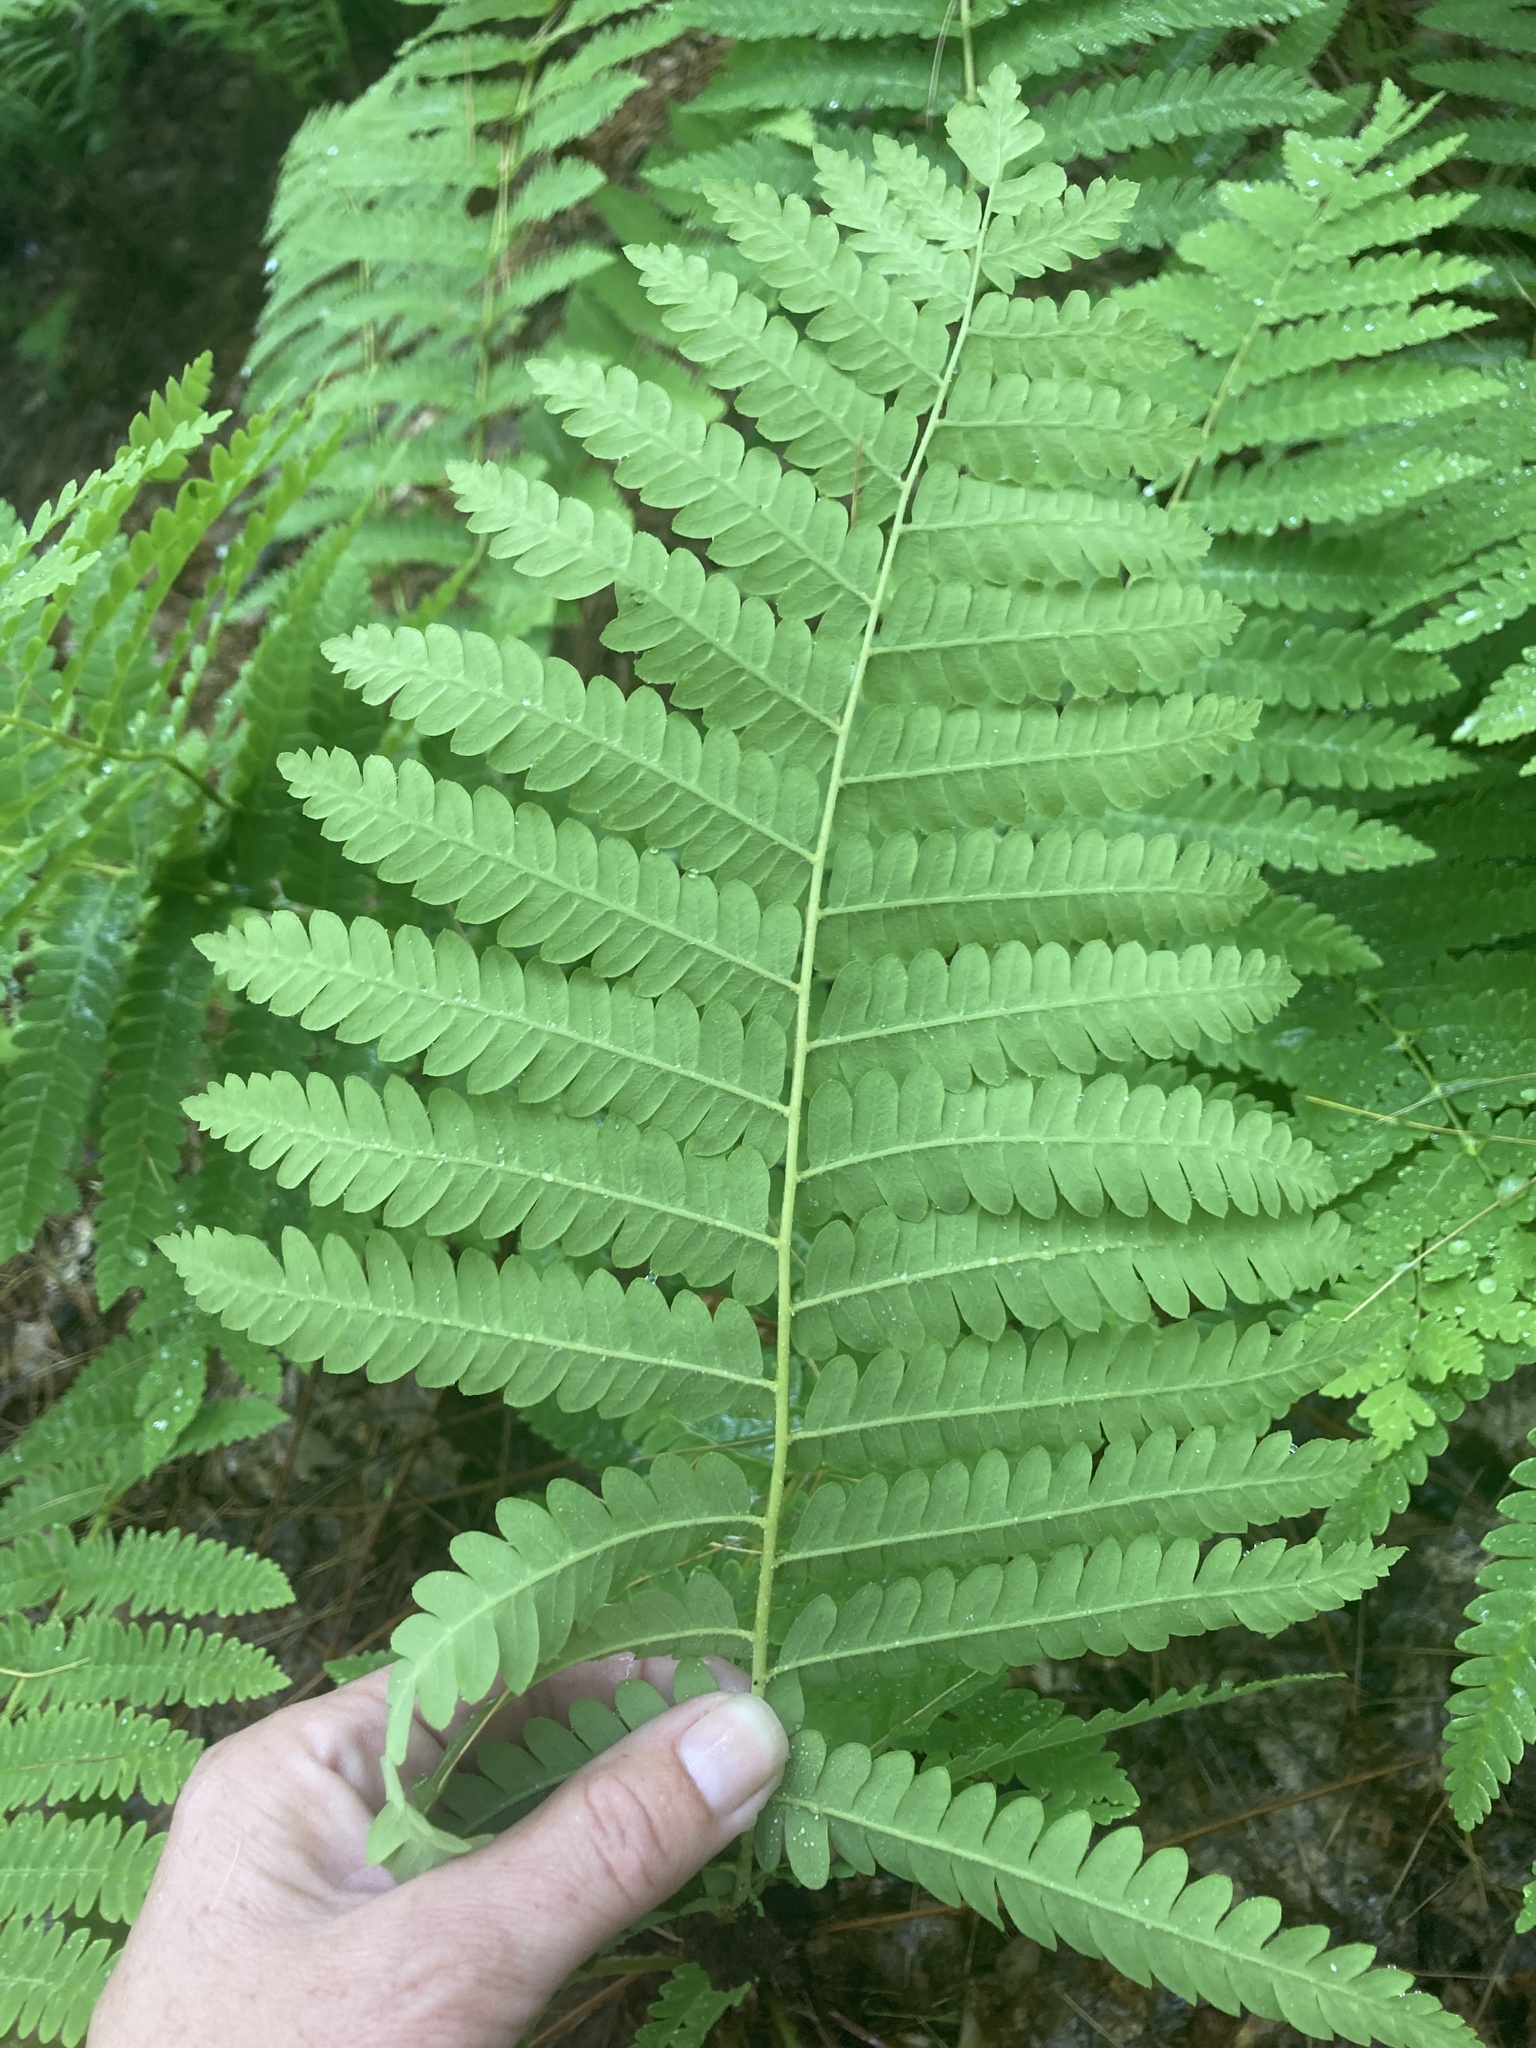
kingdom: Plantae
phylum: Tracheophyta
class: Polypodiopsida
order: Osmundales
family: Osmundaceae
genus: Claytosmunda
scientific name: Claytosmunda claytoniana
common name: Clayton's fern
